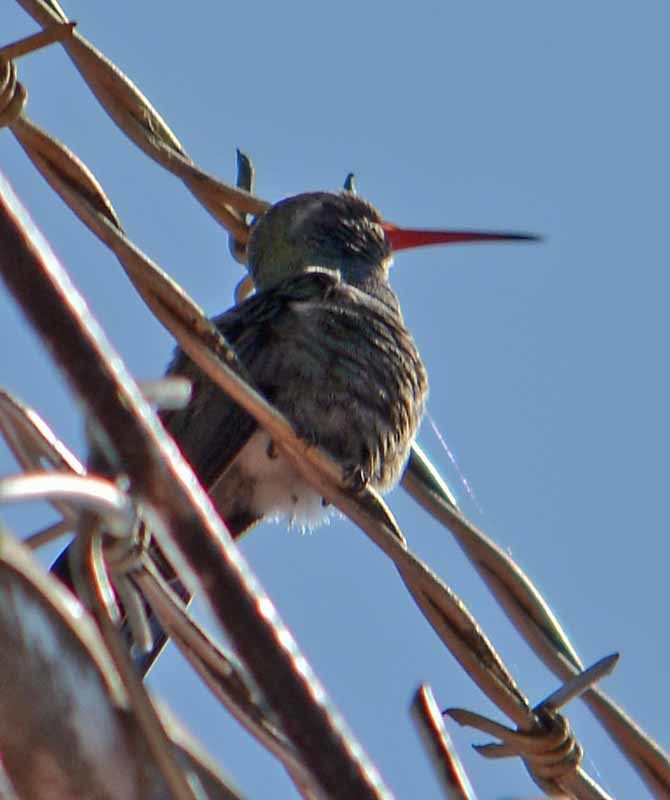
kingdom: Animalia
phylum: Chordata
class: Aves
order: Apodiformes
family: Trochilidae
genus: Cynanthus
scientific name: Cynanthus latirostris
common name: Broad-billed hummingbird
